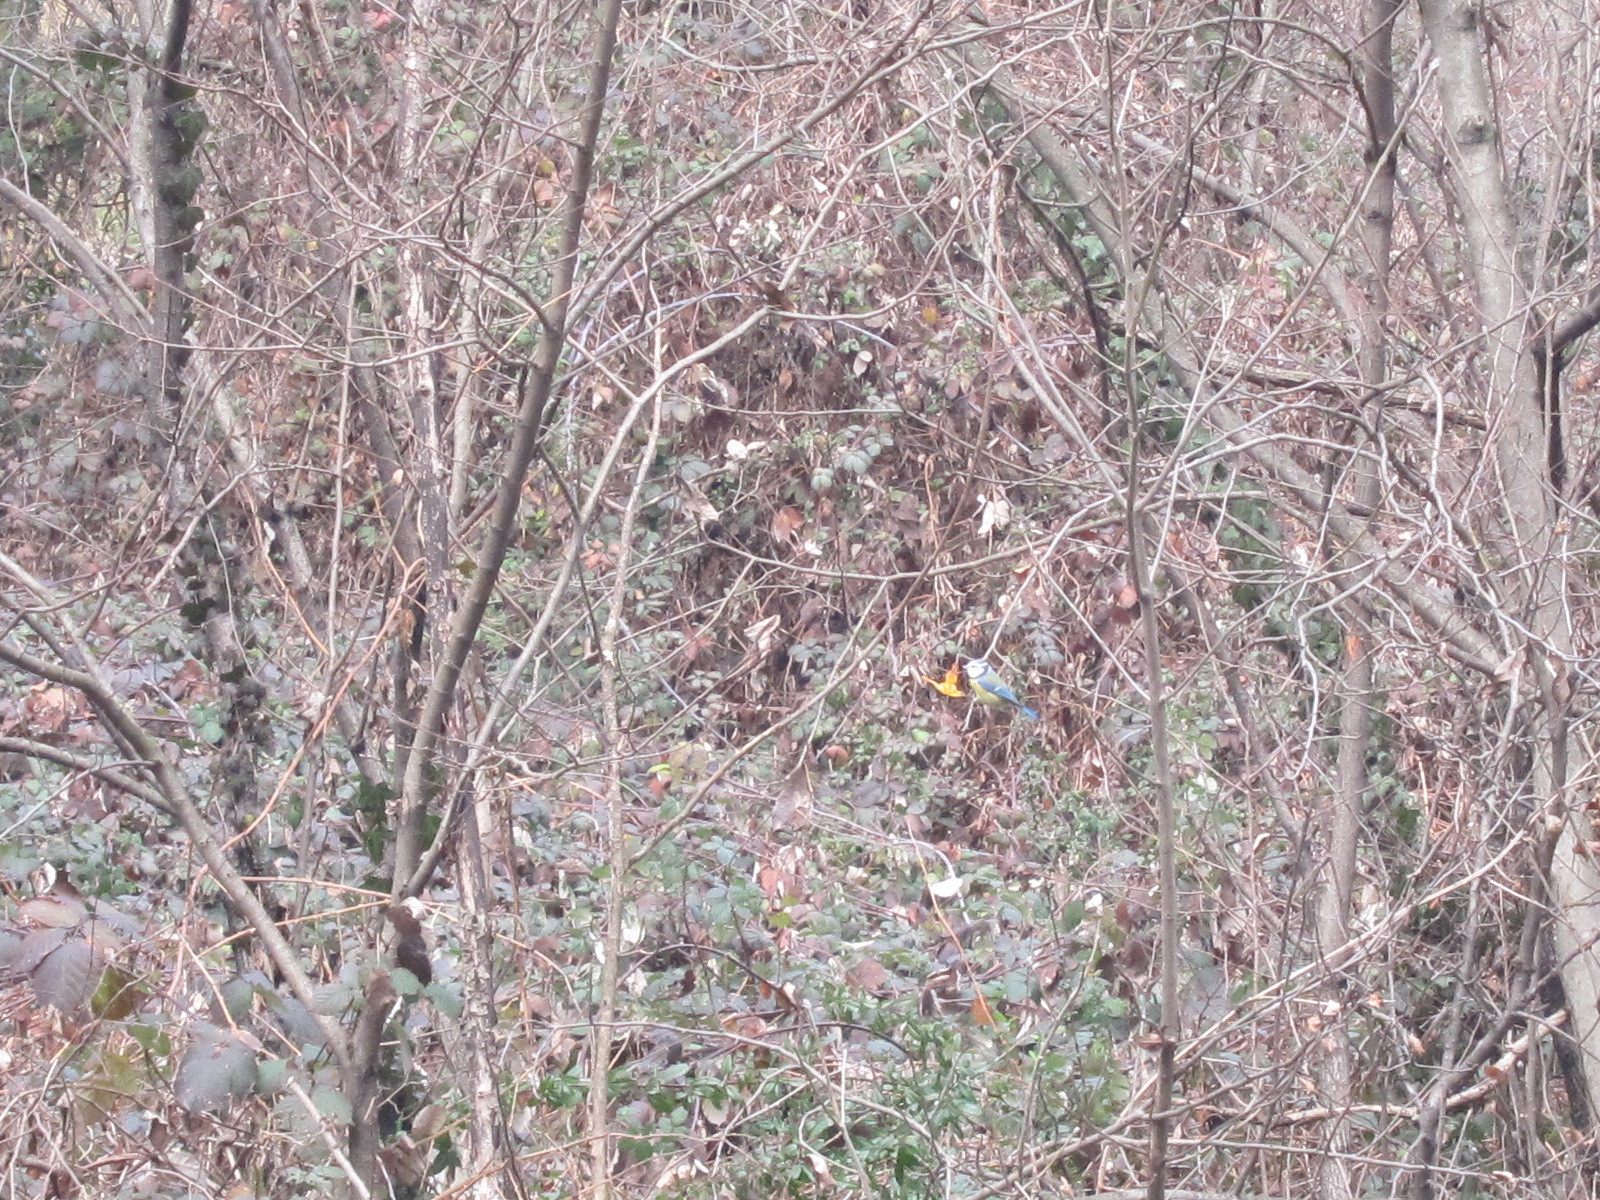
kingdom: Animalia
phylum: Chordata
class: Aves
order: Passeriformes
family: Paridae
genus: Cyanistes
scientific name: Cyanistes caeruleus
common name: Eurasian blue tit
